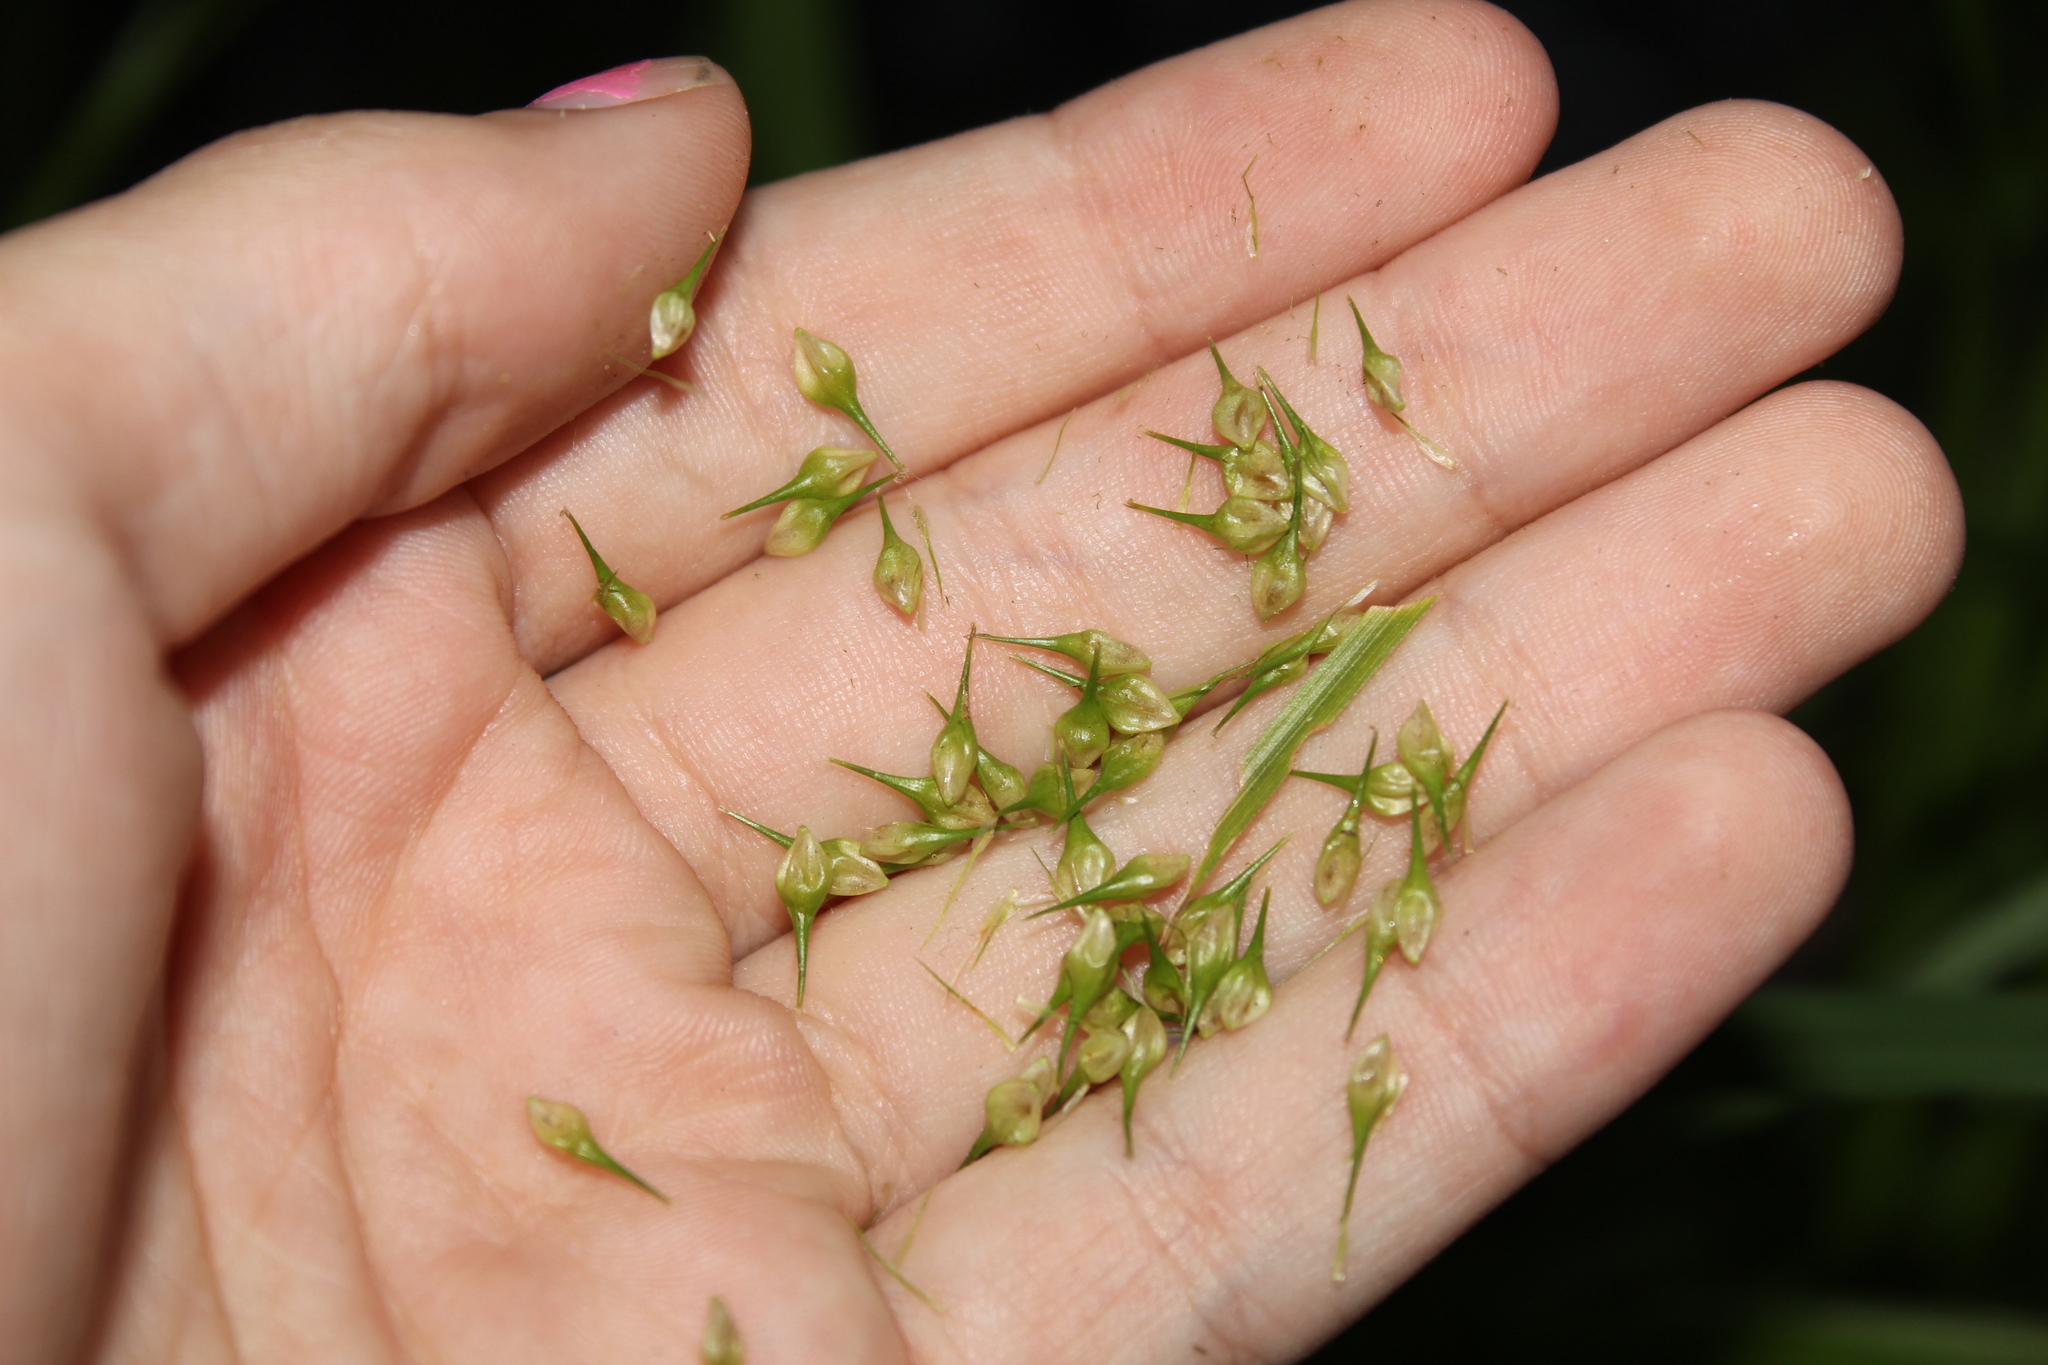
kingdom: Plantae
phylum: Tracheophyta
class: Liliopsida
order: Poales
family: Cyperaceae
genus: Carex
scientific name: Carex lurida
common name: Sallow sedge
